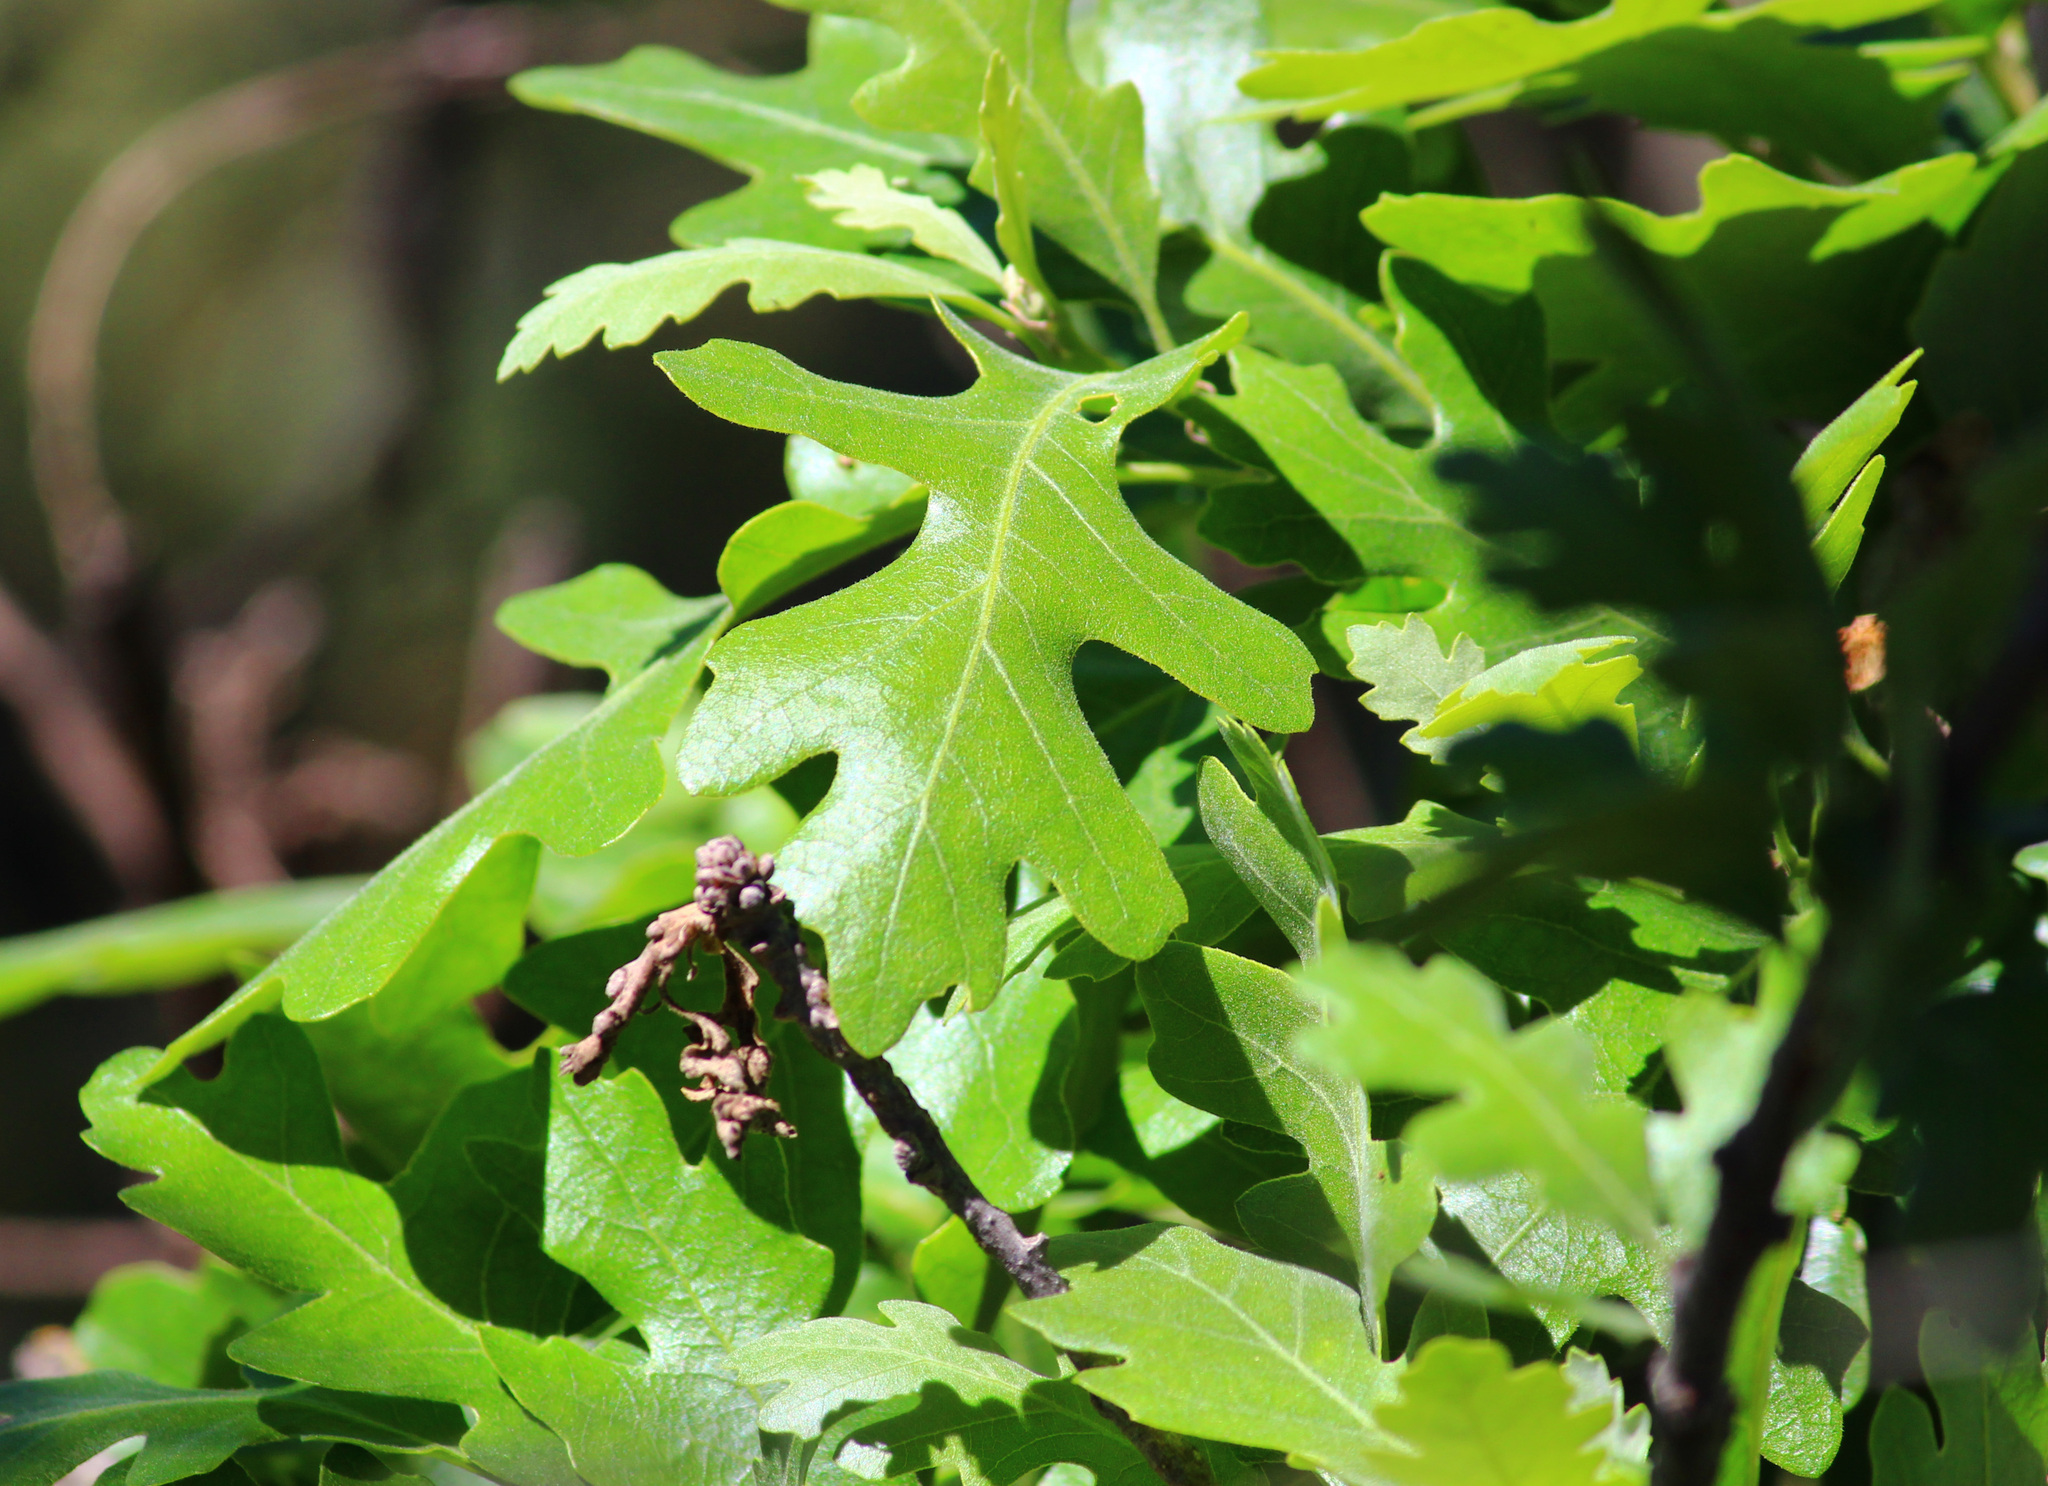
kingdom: Plantae
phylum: Tracheophyta
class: Magnoliopsida
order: Fagales
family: Fagaceae
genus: Quercus
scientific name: Quercus lobata
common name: Valley oak
